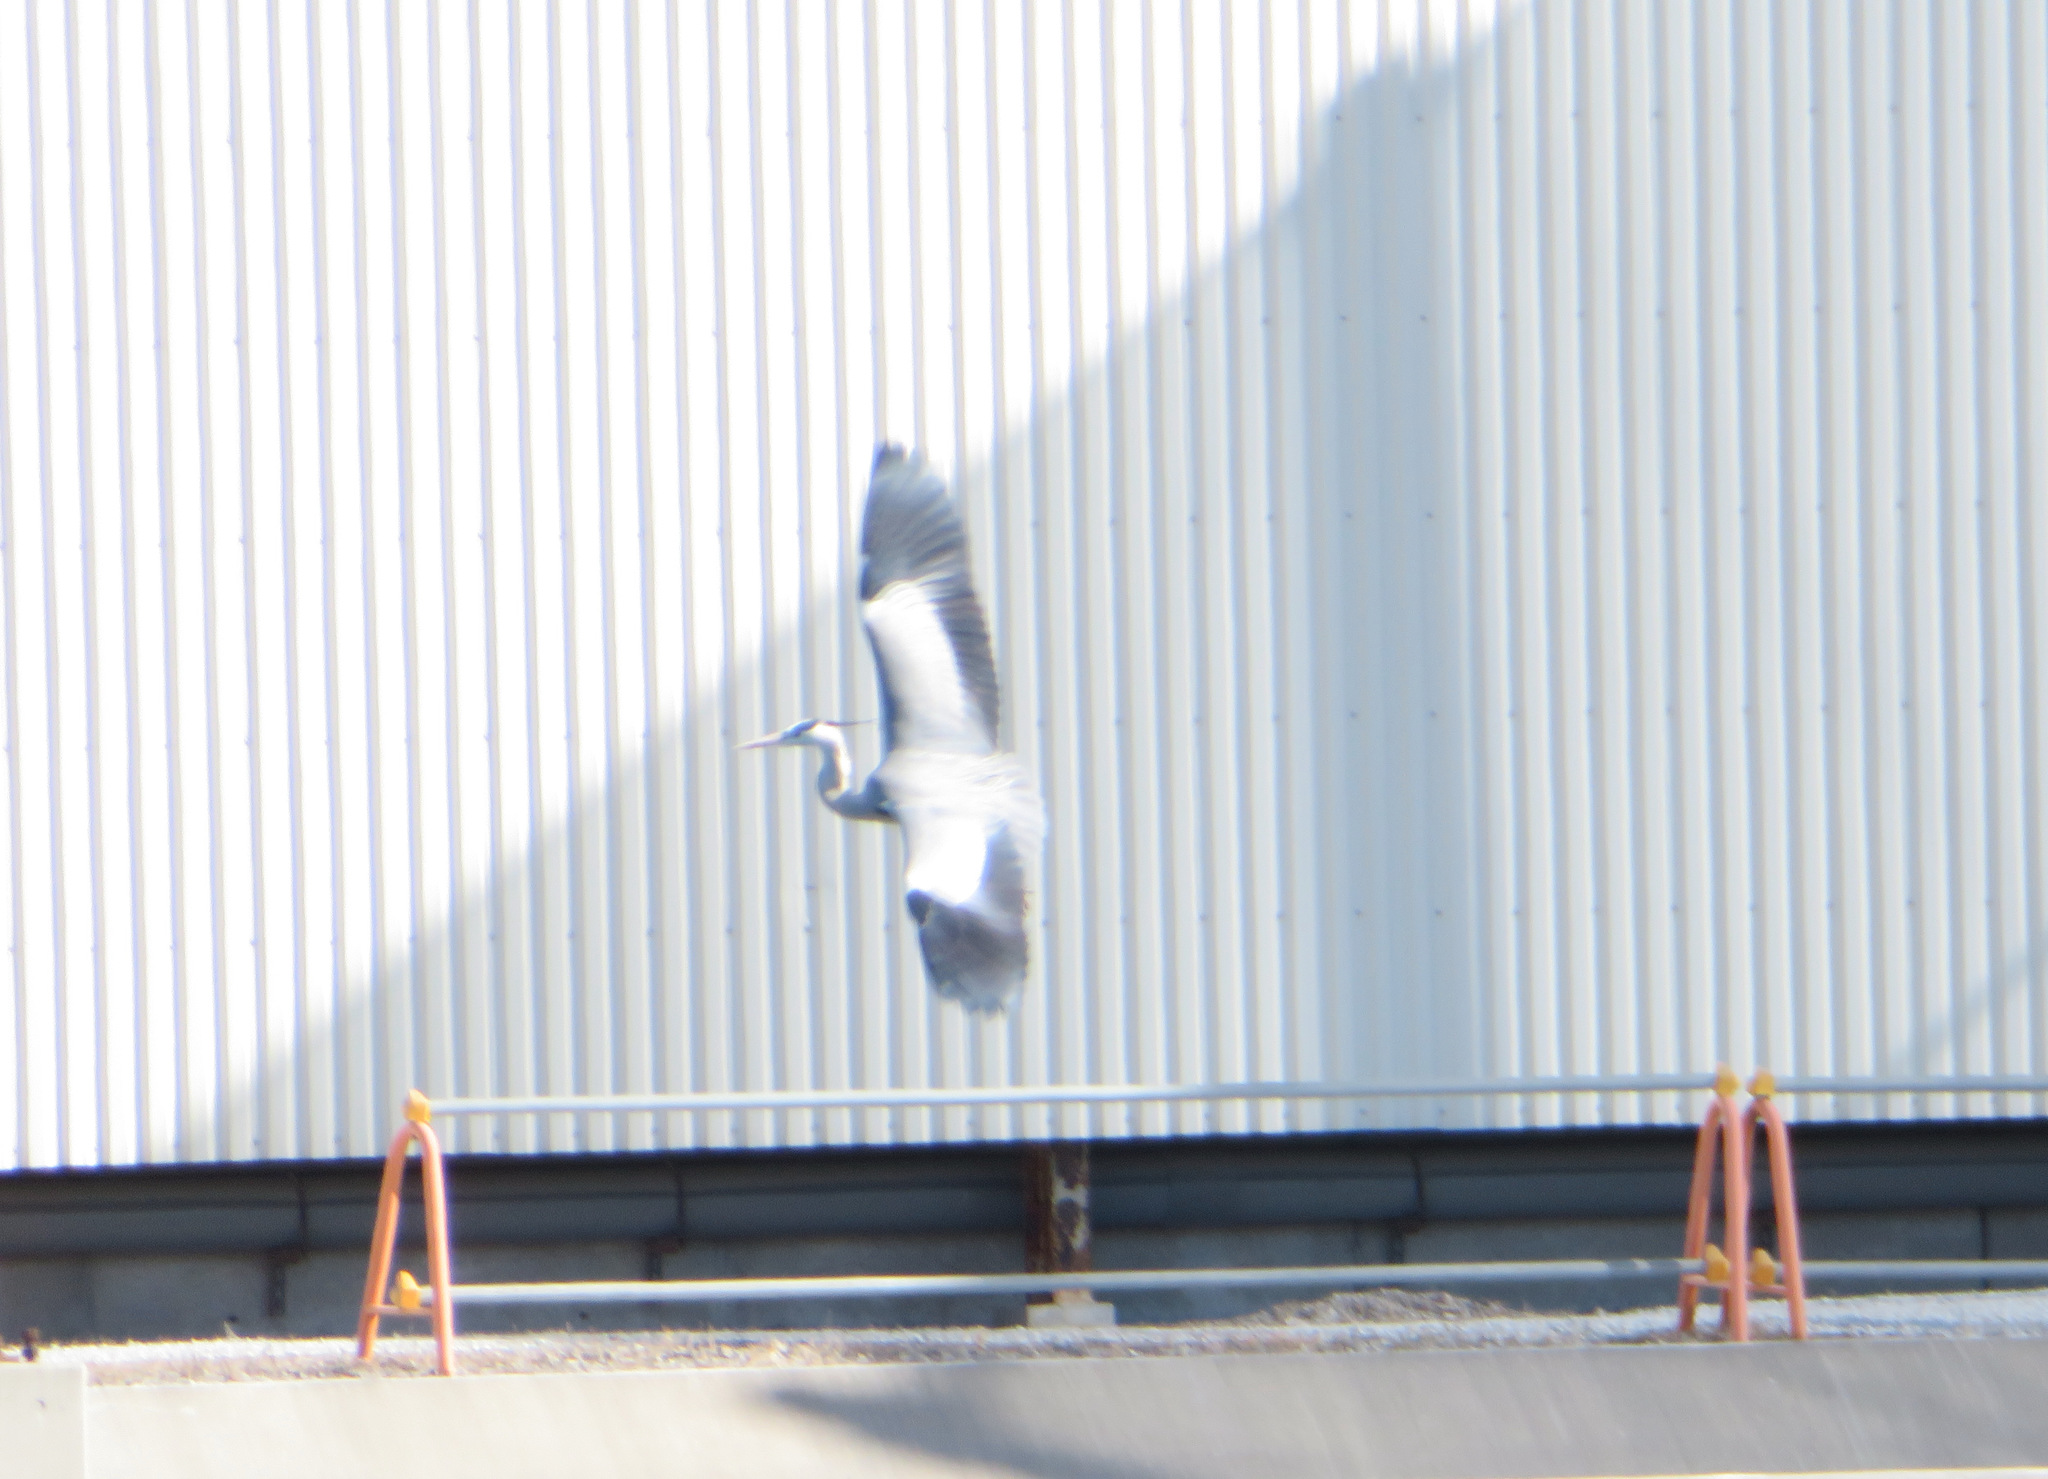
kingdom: Animalia
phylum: Chordata
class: Aves
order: Pelecaniformes
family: Ardeidae
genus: Ardea
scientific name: Ardea cinerea
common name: Grey heron
